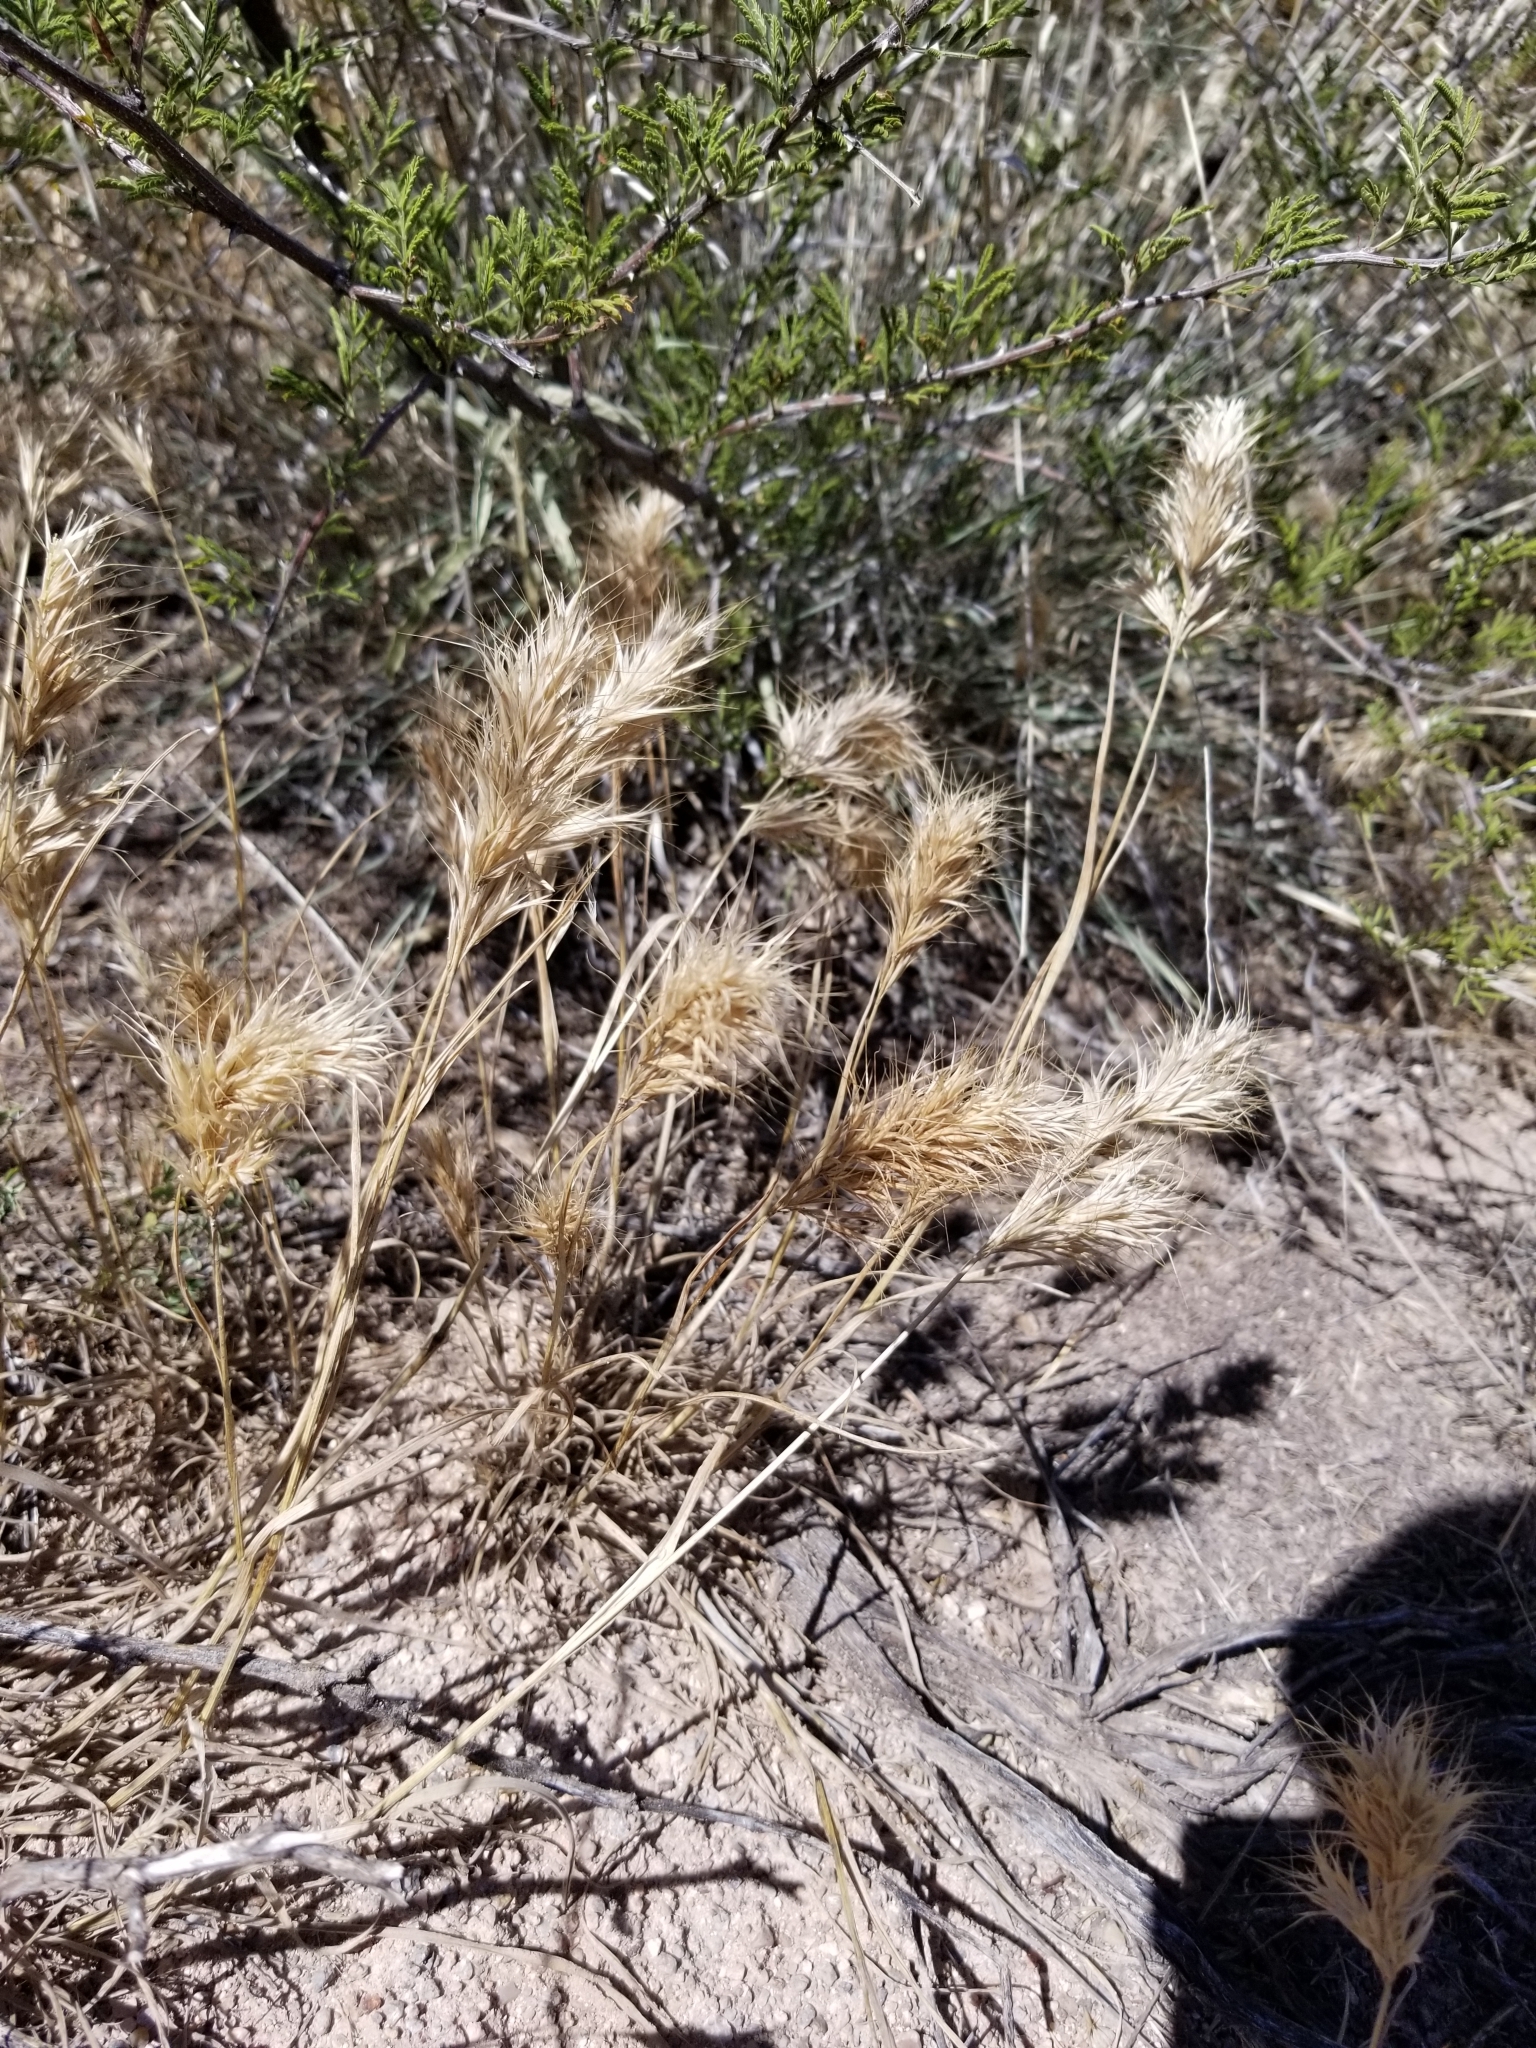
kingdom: Plantae
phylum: Tracheophyta
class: Liliopsida
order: Poales
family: Poaceae
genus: Bromus
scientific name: Bromus rubens
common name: Red brome
